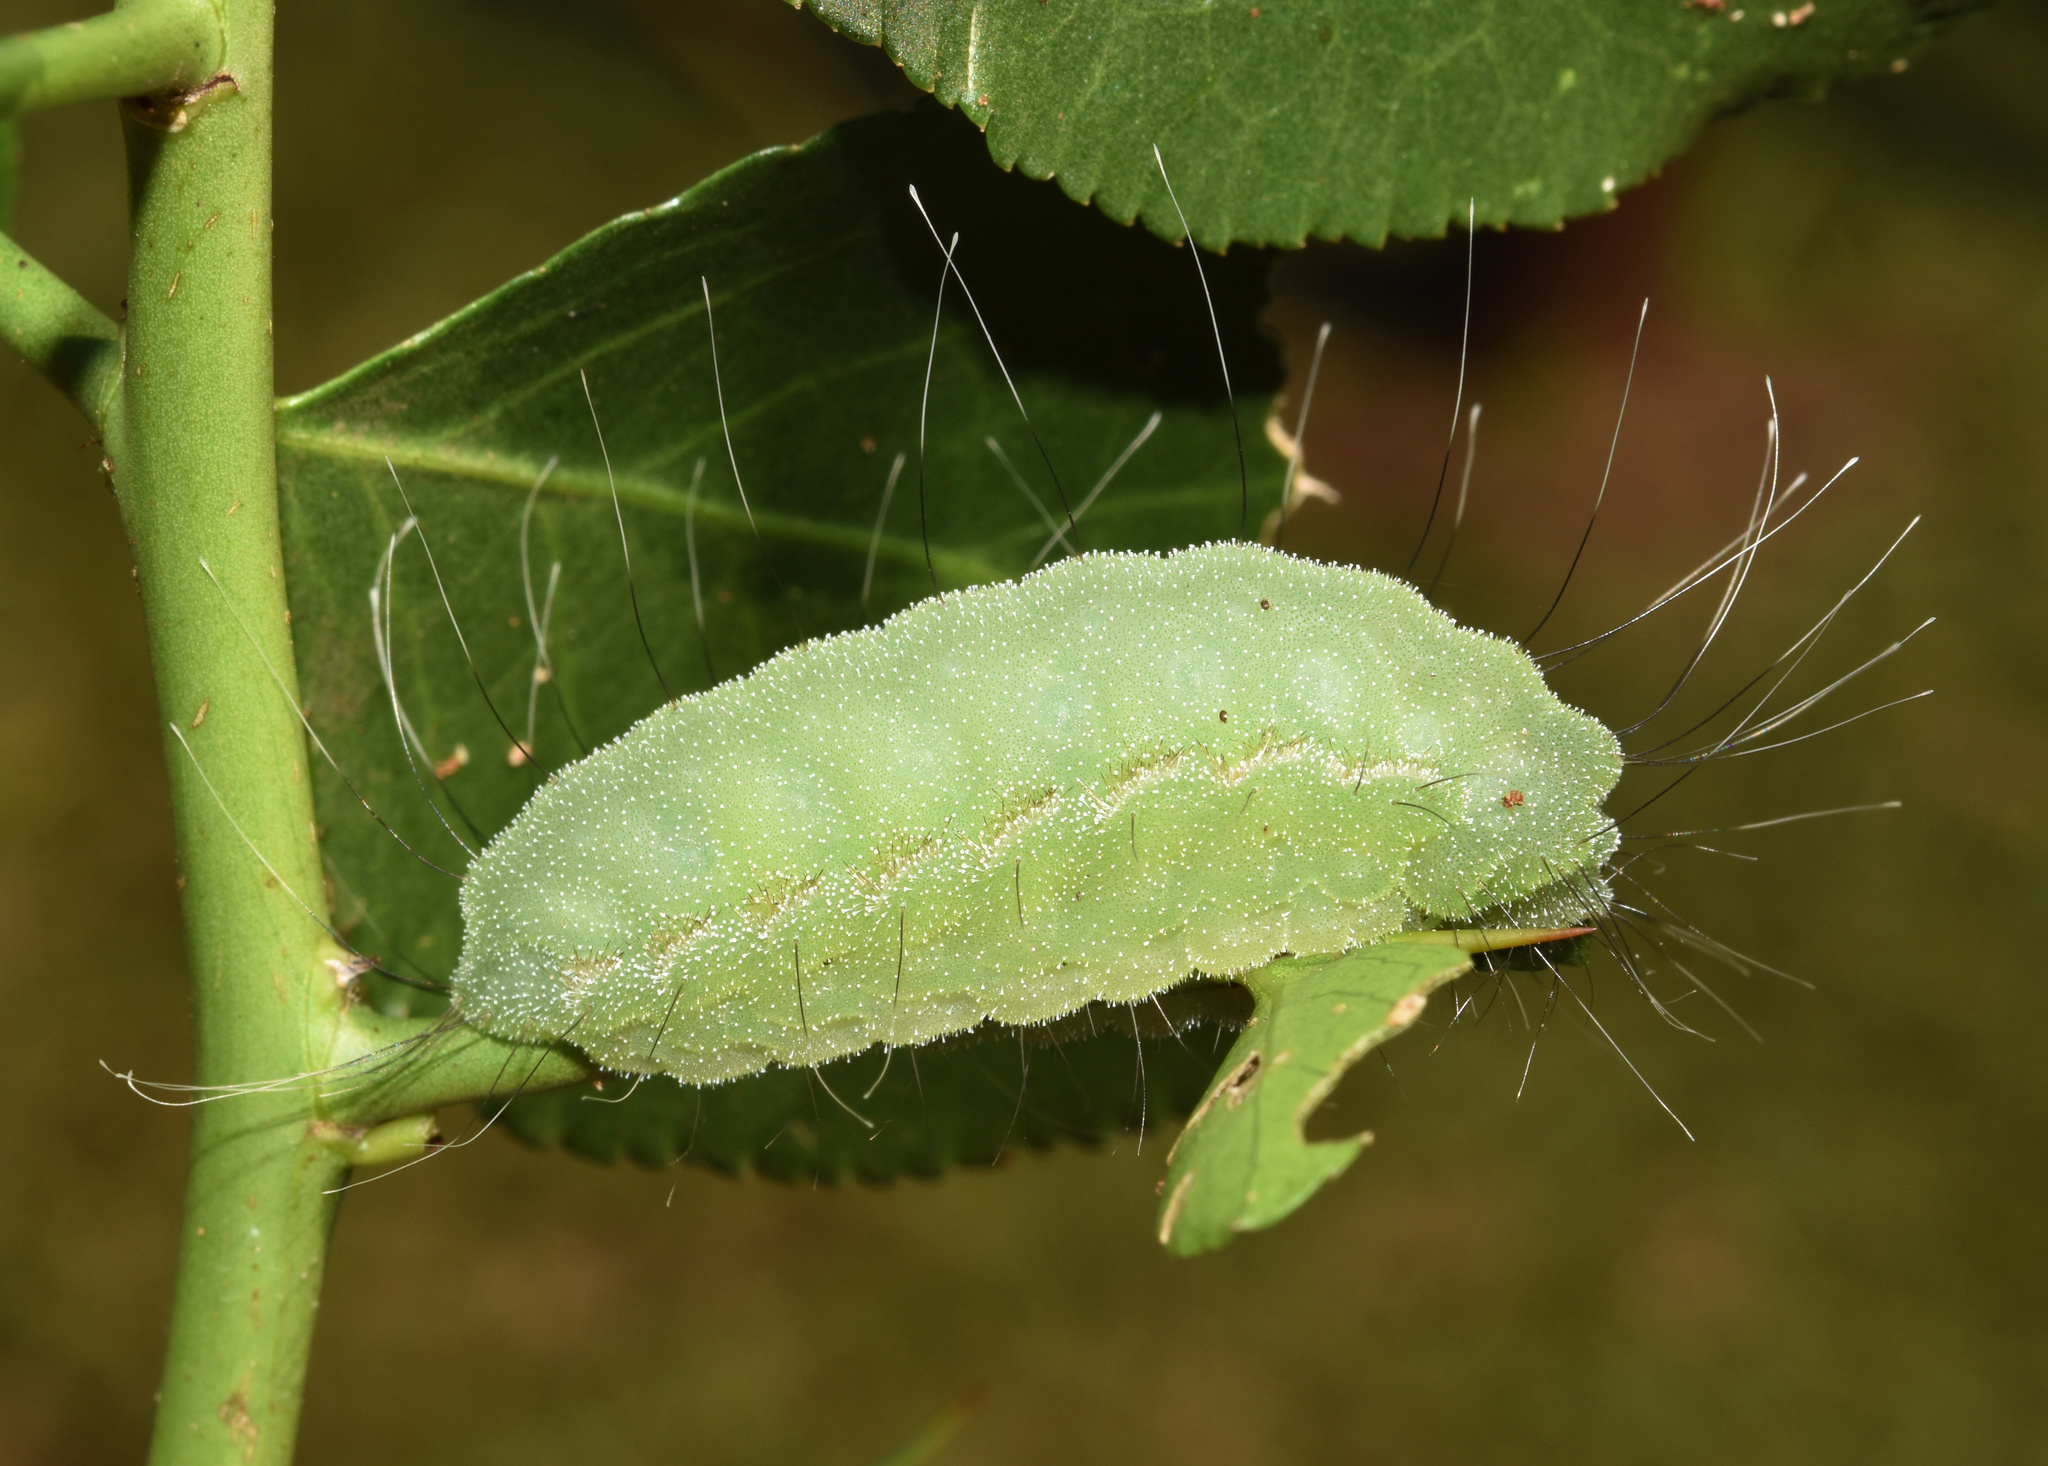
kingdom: Animalia
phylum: Arthropoda
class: Insecta
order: Lepidoptera
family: Limacodidae
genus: Chrysopoloma
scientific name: Chrysopoloma isabellina
